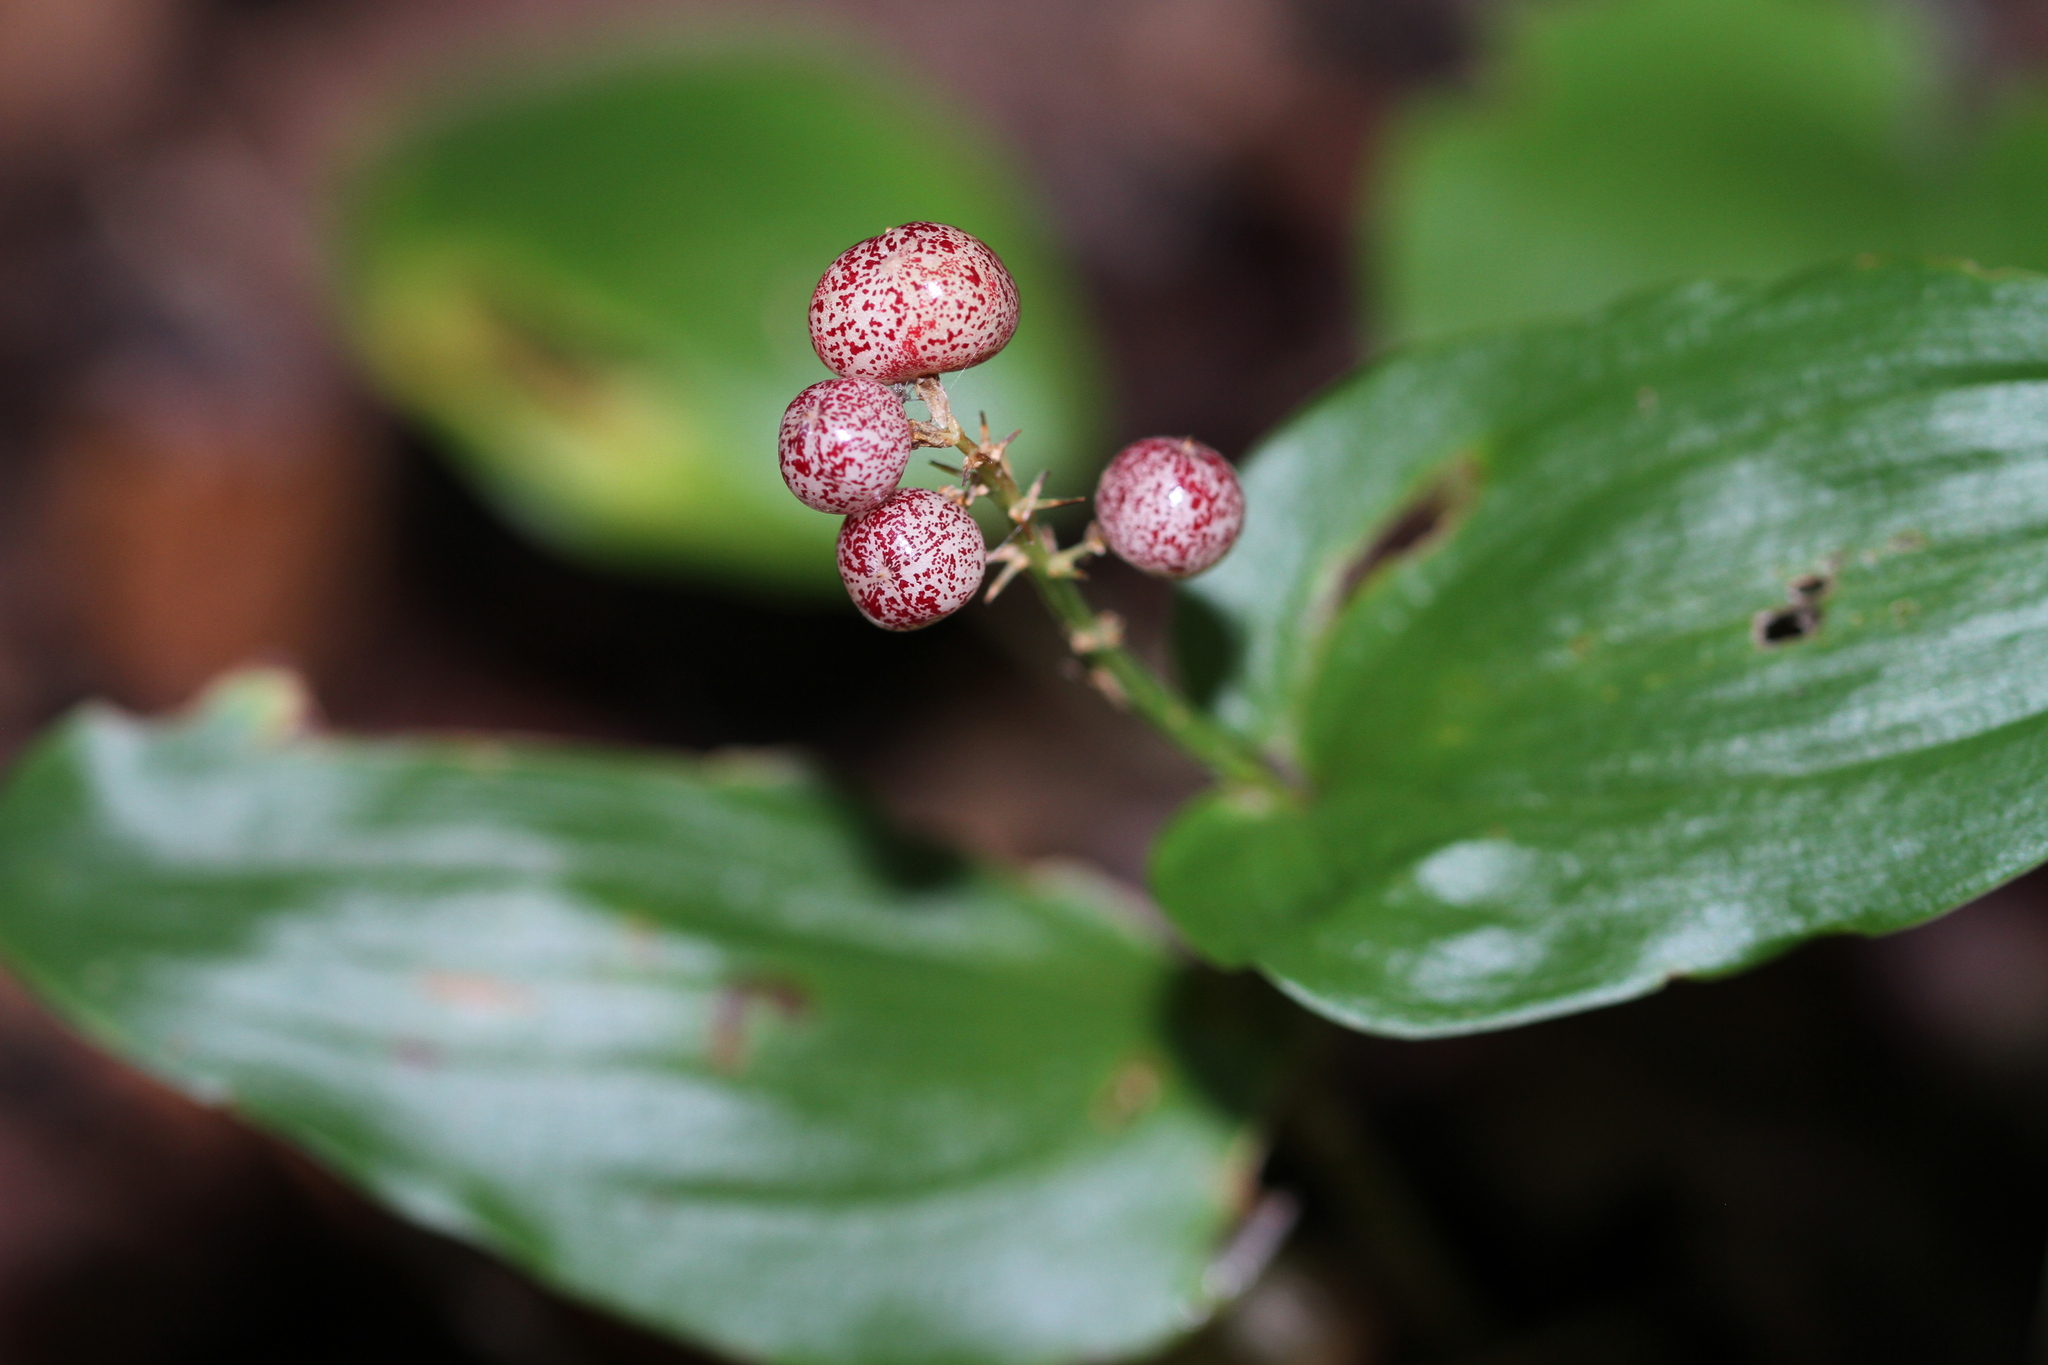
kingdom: Plantae
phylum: Tracheophyta
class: Liliopsida
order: Asparagales
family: Asparagaceae
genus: Maianthemum
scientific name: Maianthemum canadense
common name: False lily-of-the-valley
